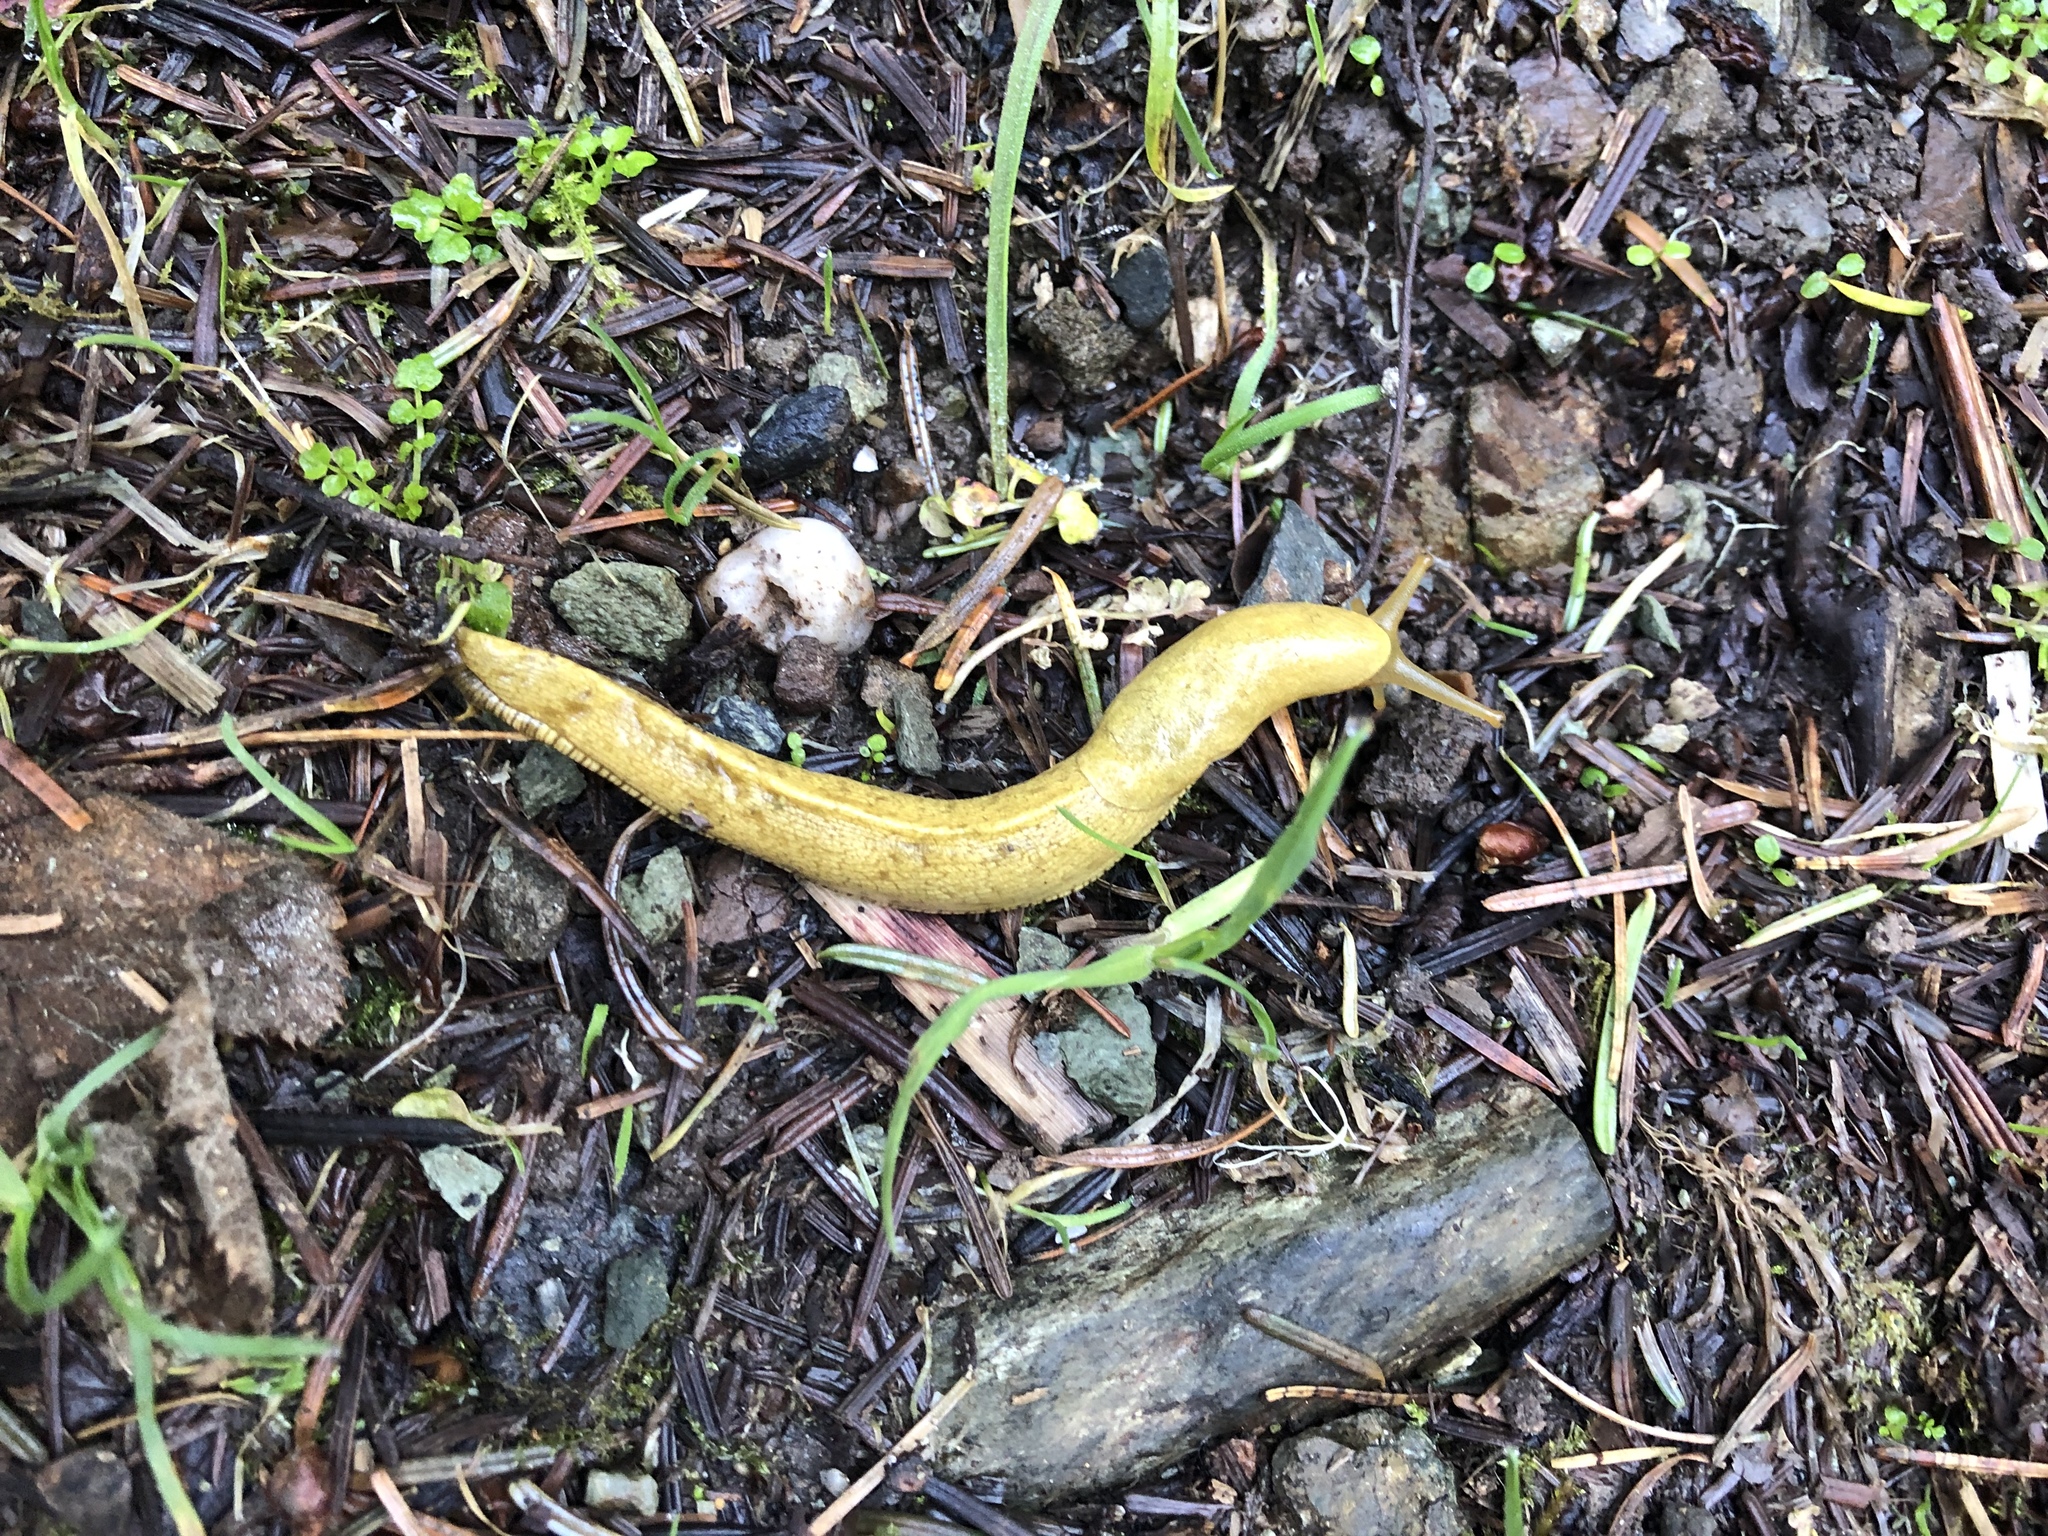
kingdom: Animalia
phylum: Mollusca
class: Gastropoda
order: Stylommatophora
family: Ariolimacidae
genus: Ariolimax
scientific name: Ariolimax columbianus
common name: Pacific banana slug
